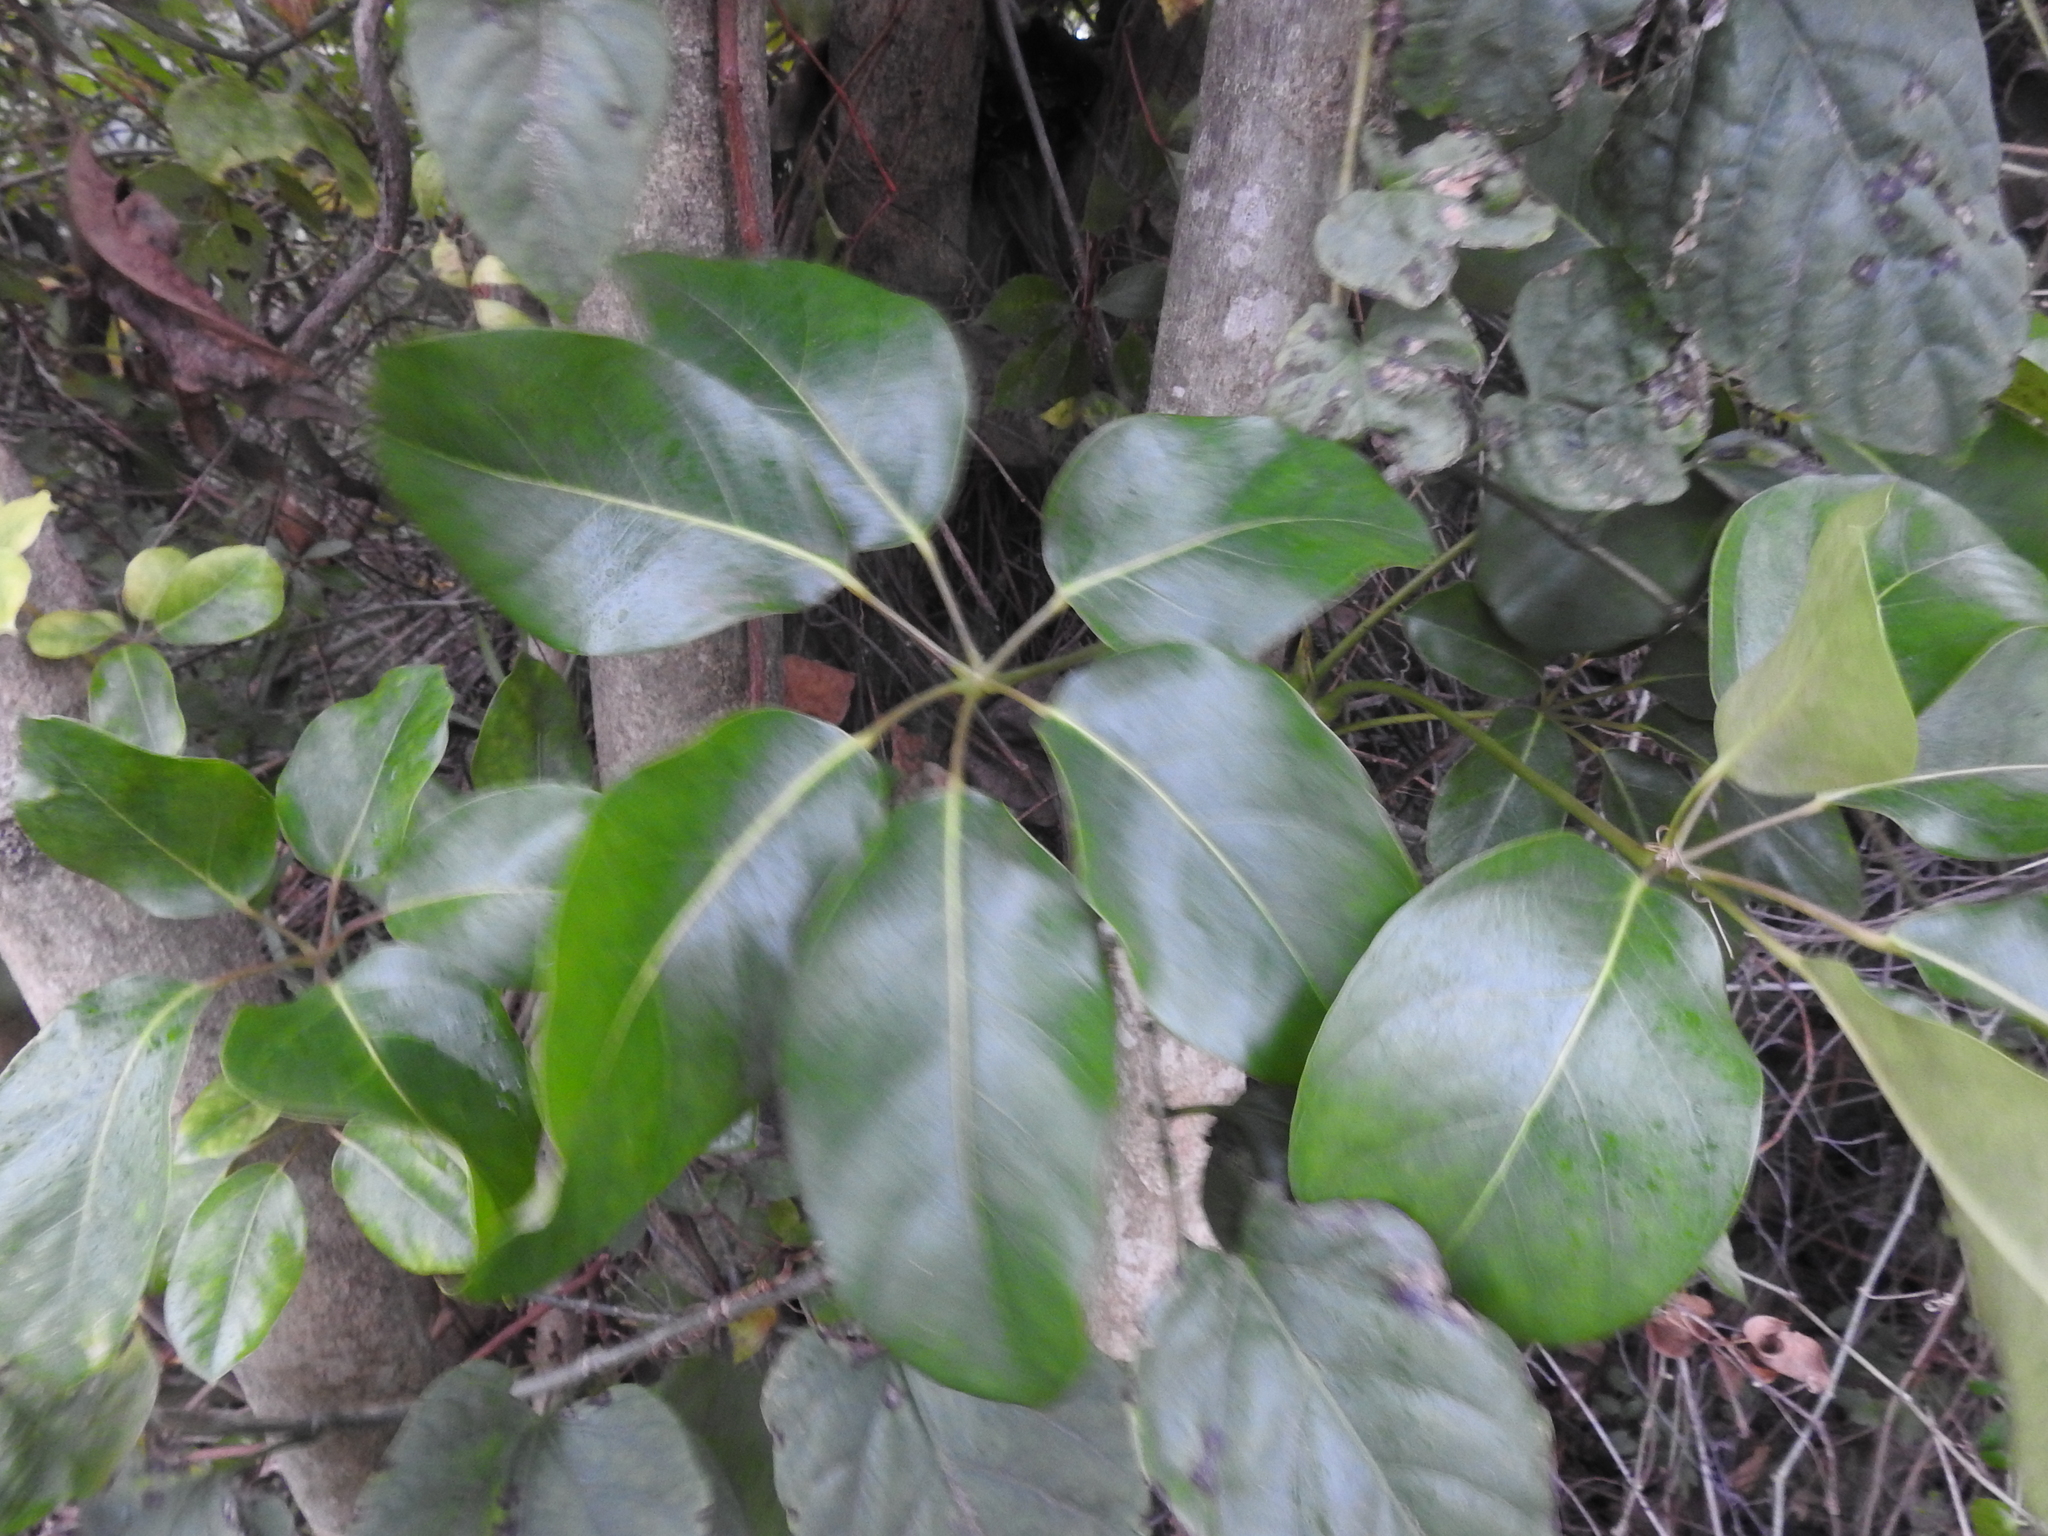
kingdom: Plantae
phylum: Tracheophyta
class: Magnoliopsida
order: Apiales
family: Araliaceae
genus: Heptapleurum
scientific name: Heptapleurum actinophyllum
